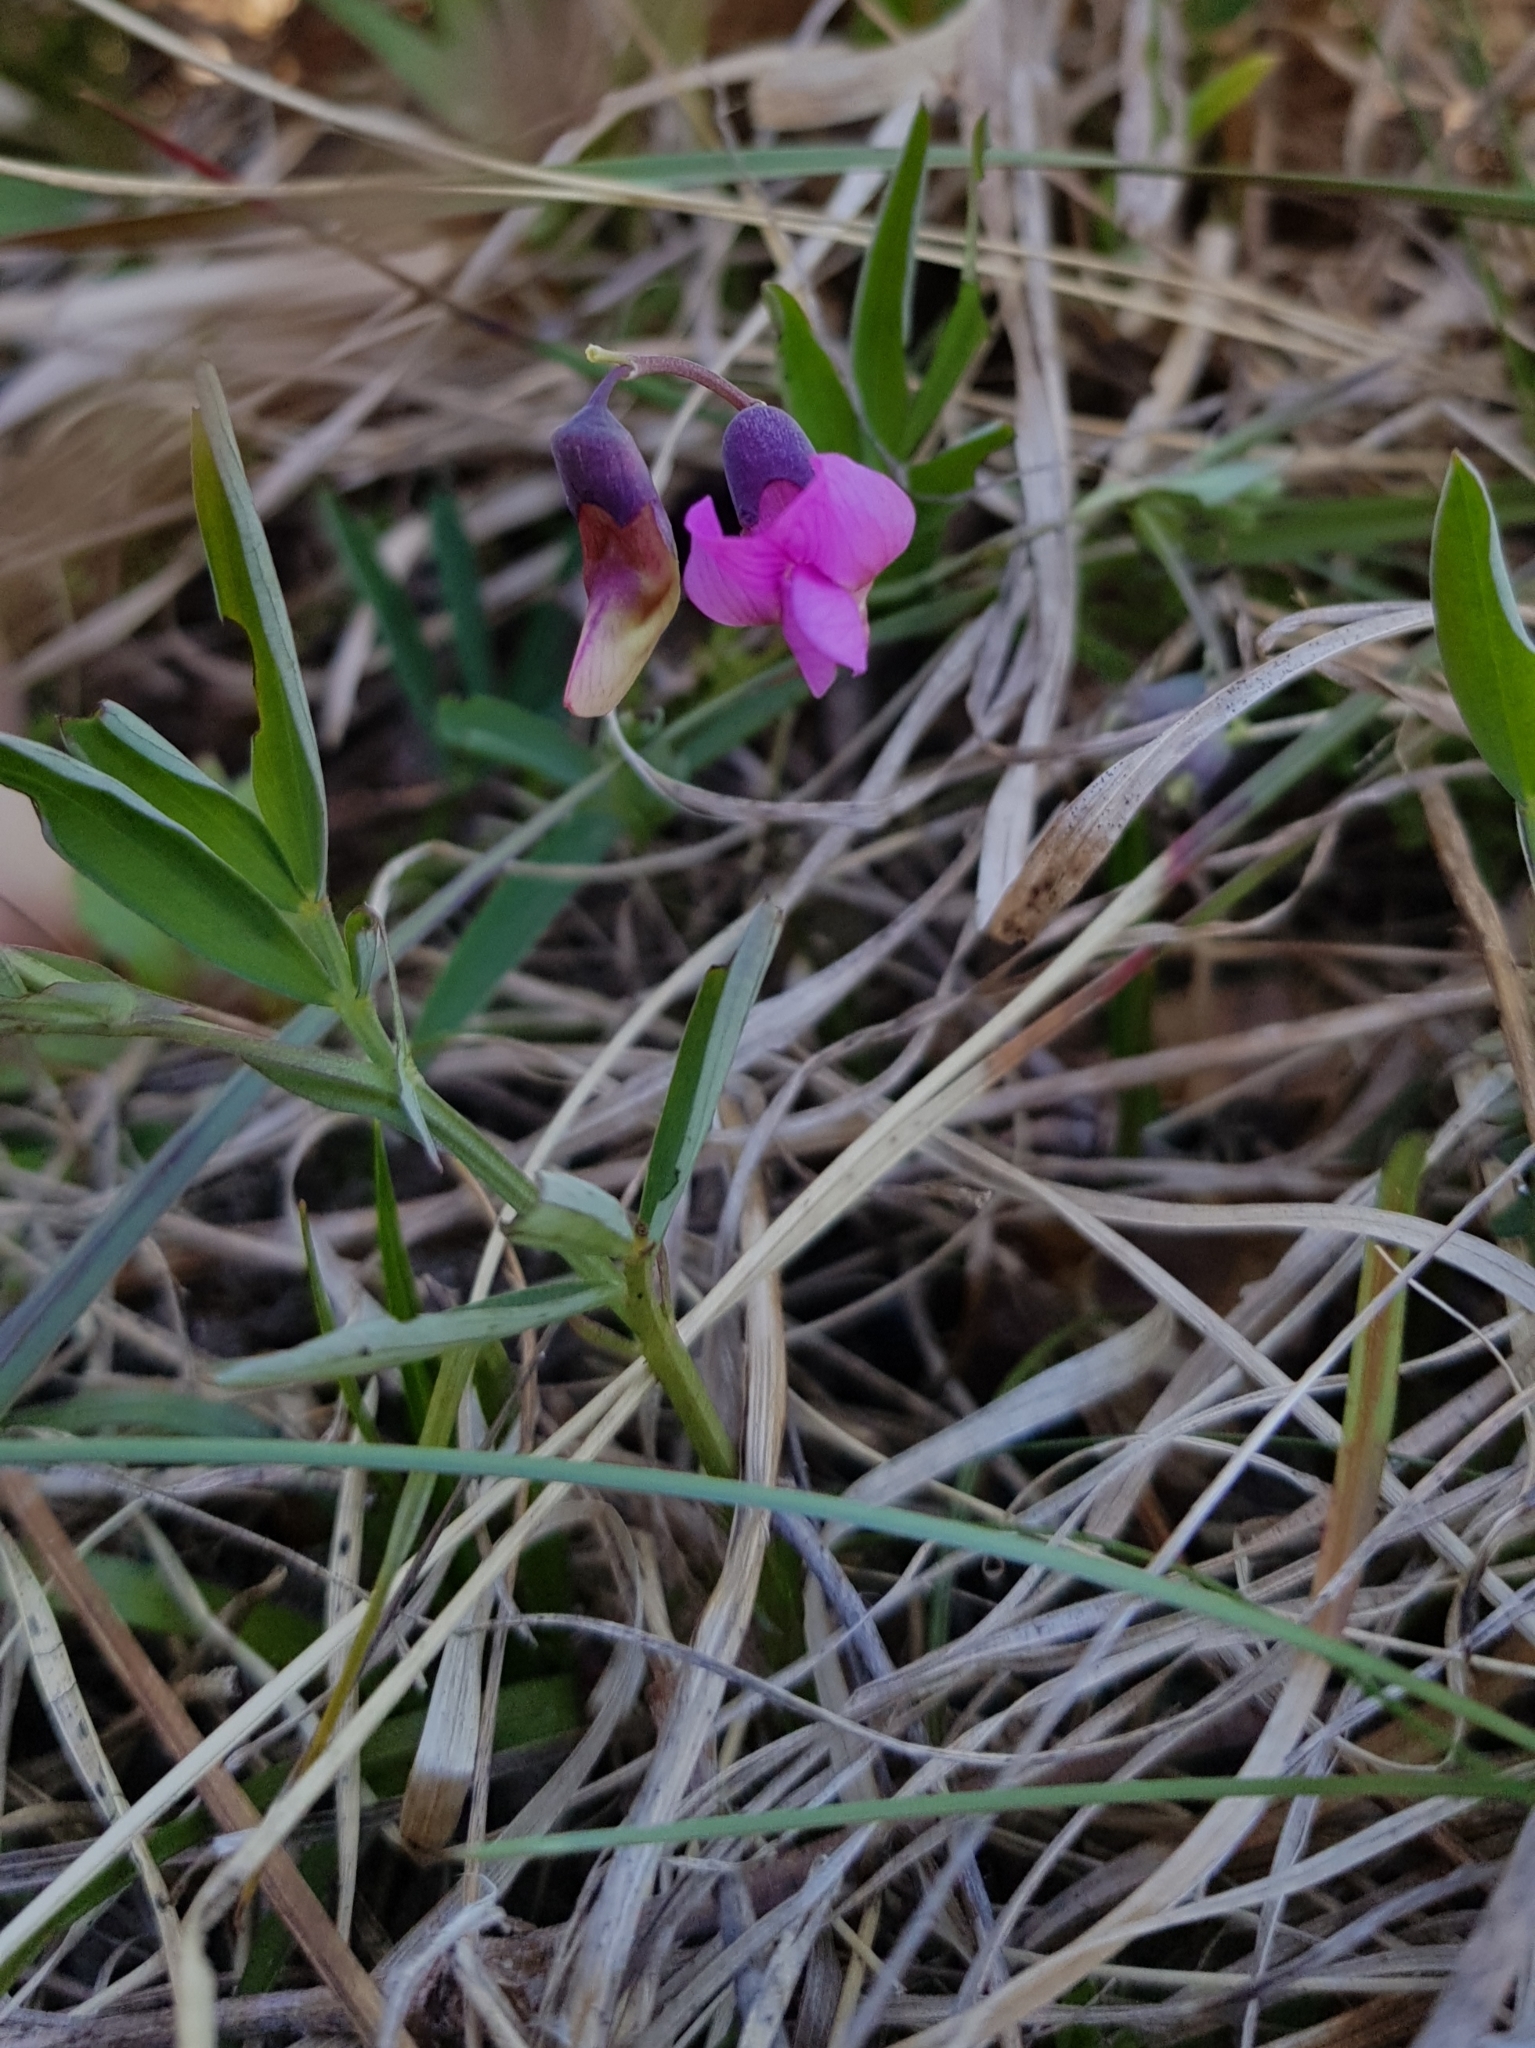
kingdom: Plantae
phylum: Tracheophyta
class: Magnoliopsida
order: Fabales
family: Fabaceae
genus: Lathyrus
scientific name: Lathyrus linifolius
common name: Bitter-vetch
